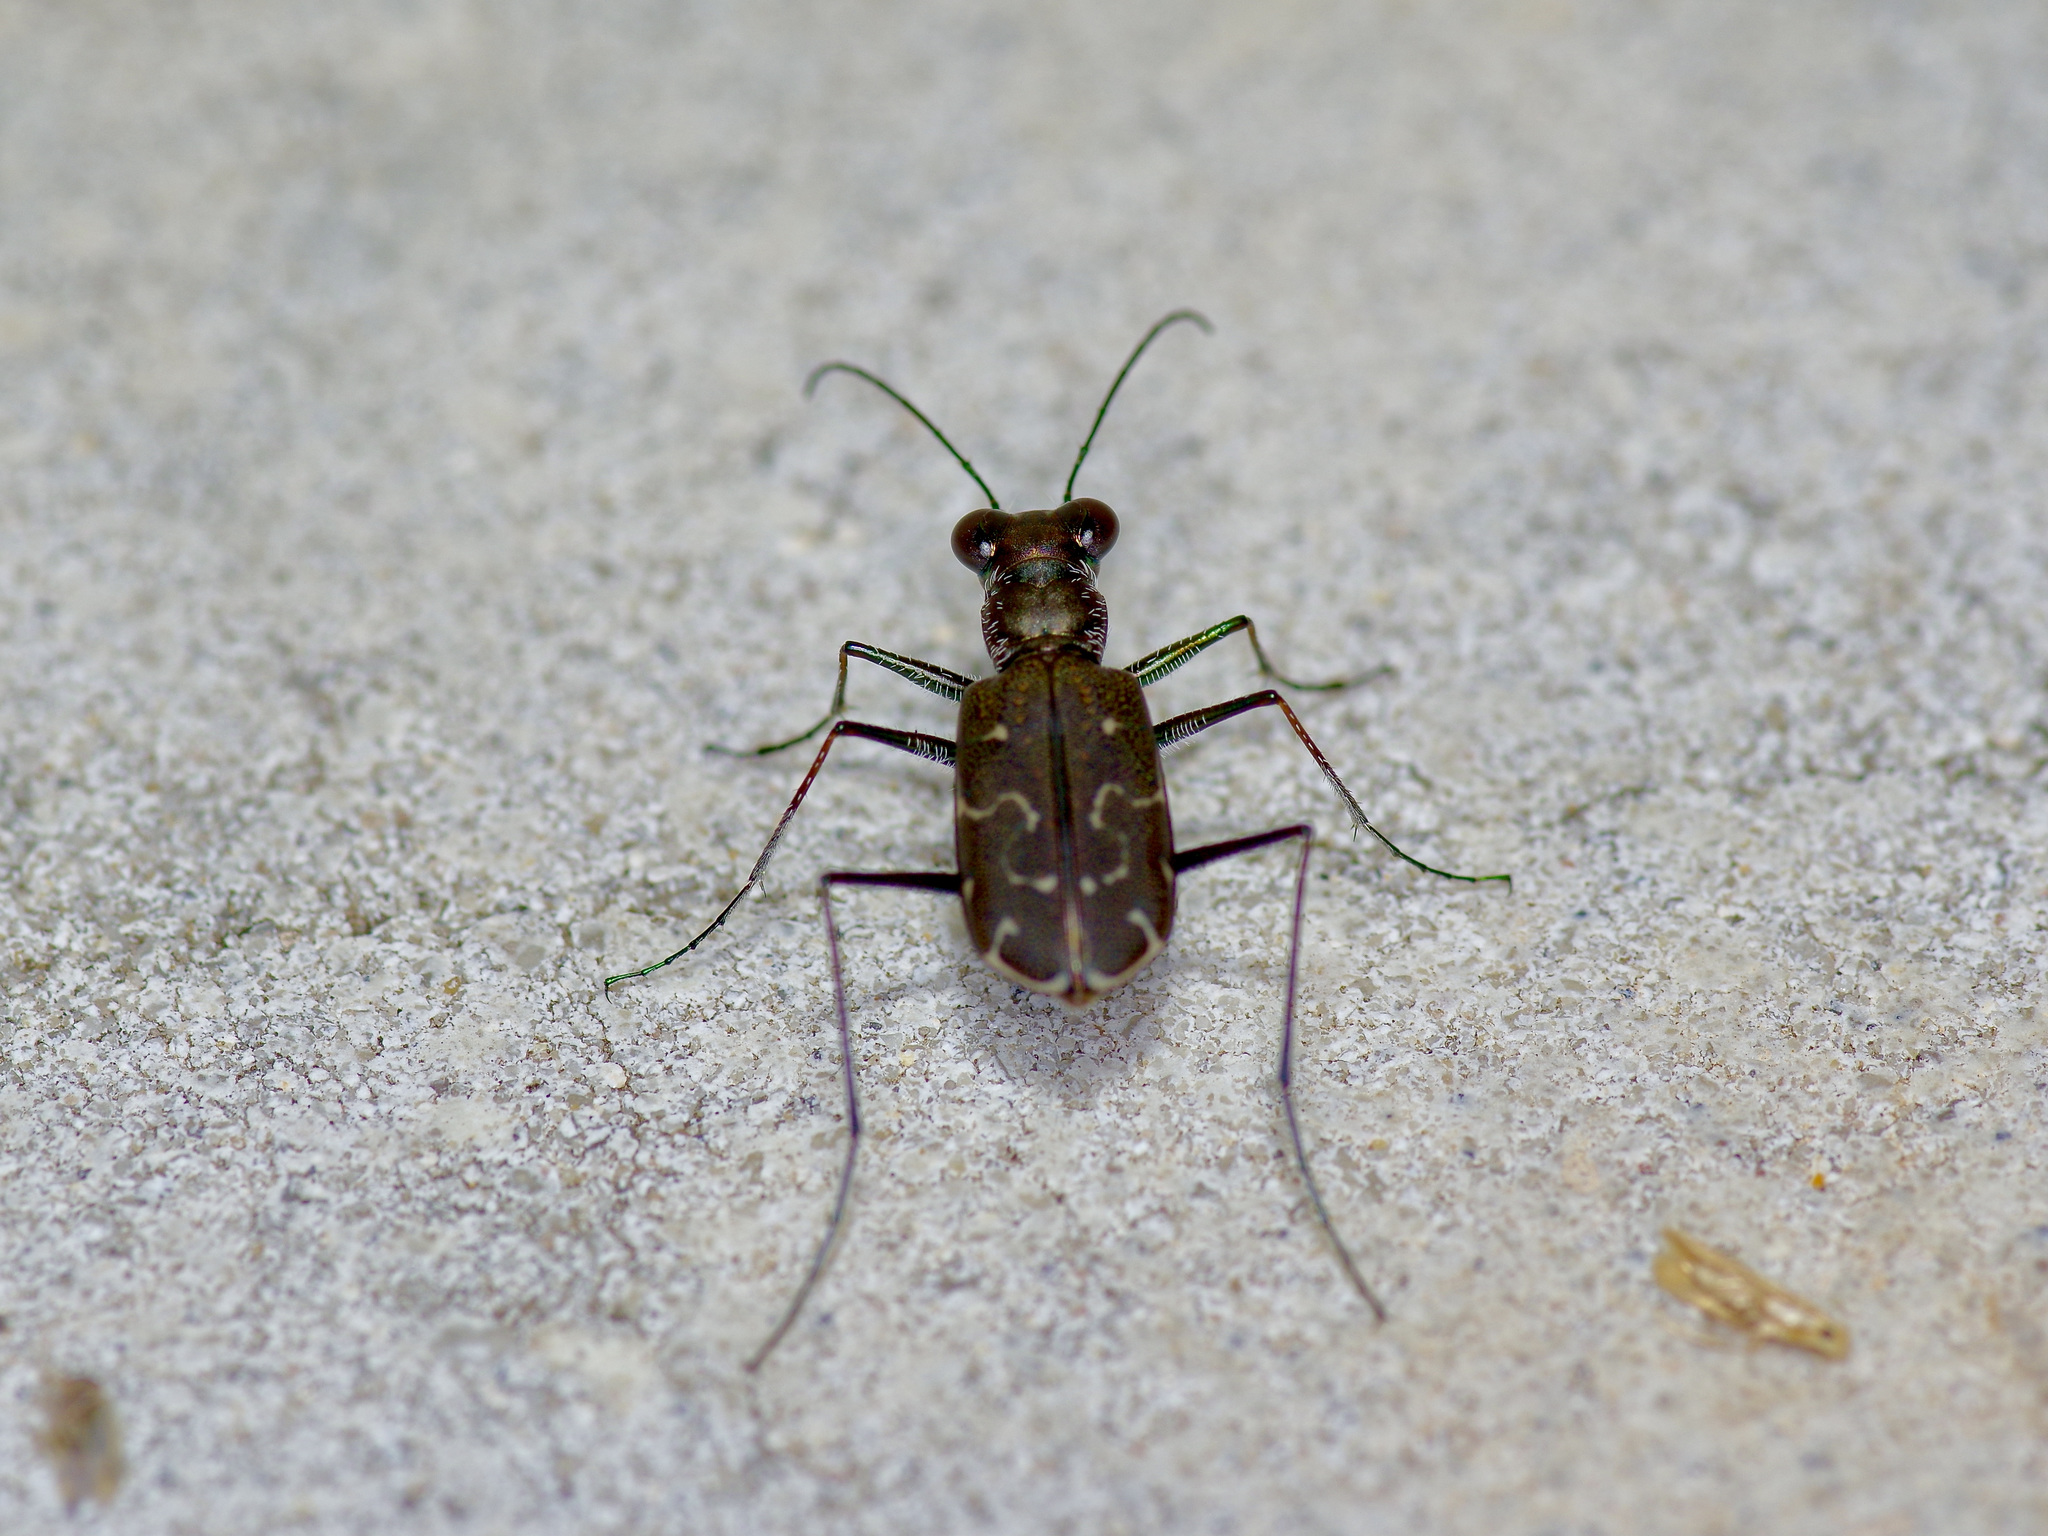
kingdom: Animalia
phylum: Arthropoda
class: Insecta
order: Coleoptera
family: Carabidae
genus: Cicindela
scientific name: Cicindela trifasciata
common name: Mudflat tiger beetle
